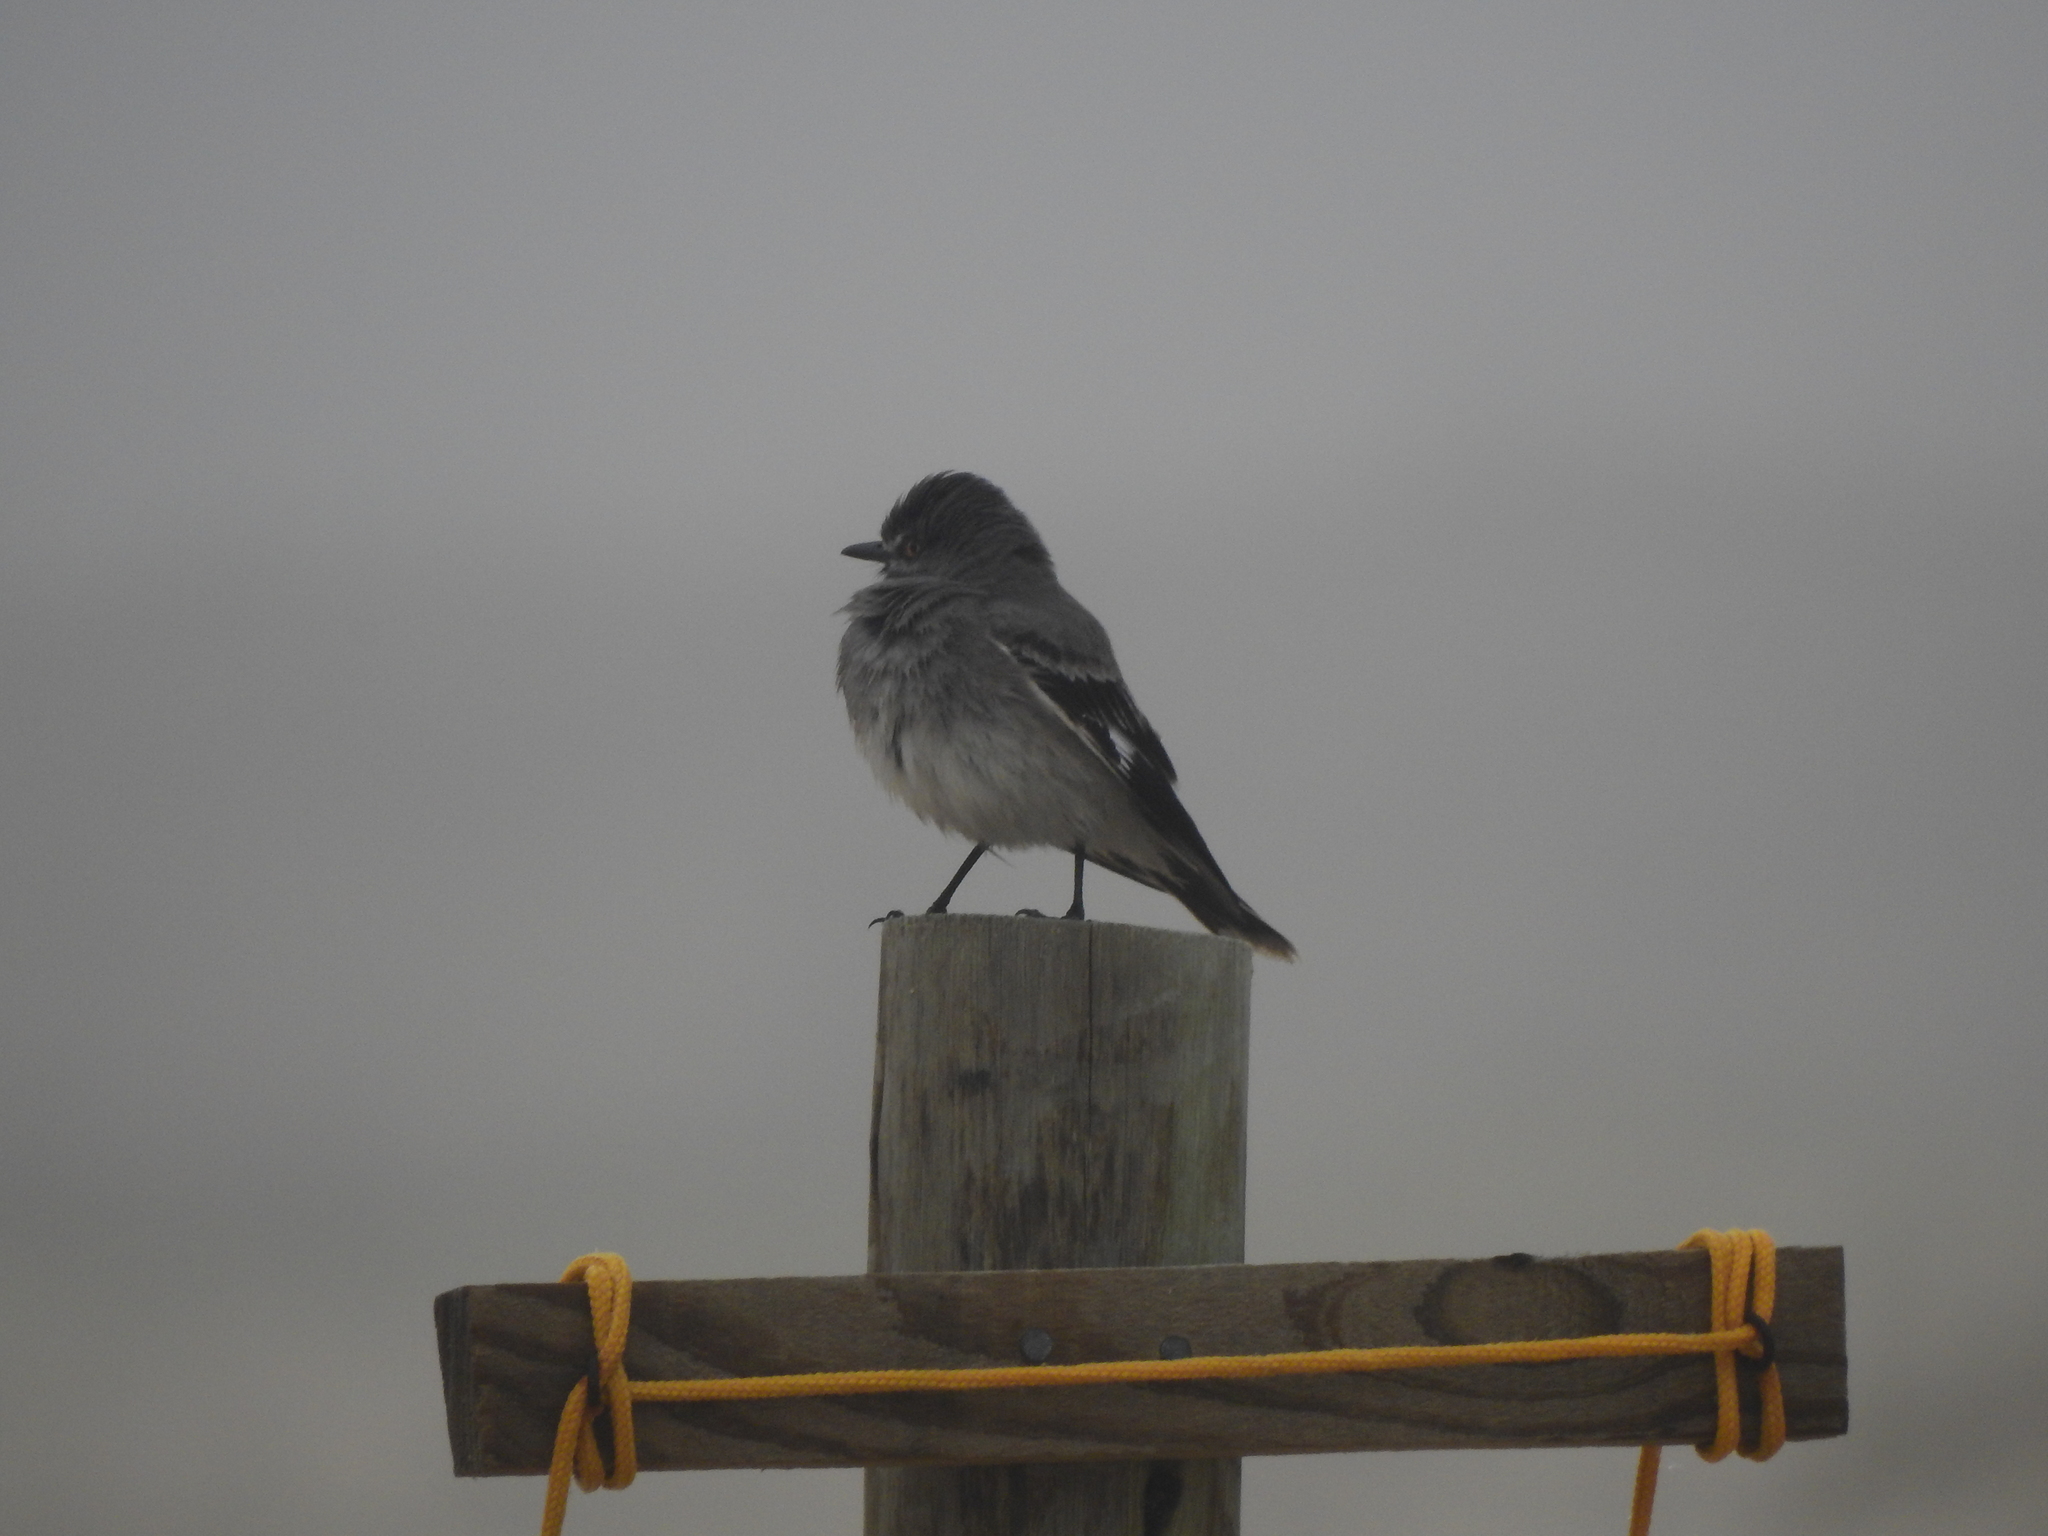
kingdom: Animalia
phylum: Chordata
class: Aves
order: Passeriformes
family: Tyrannidae
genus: Xolmis
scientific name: Xolmis cinereus
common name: Grey monjita
